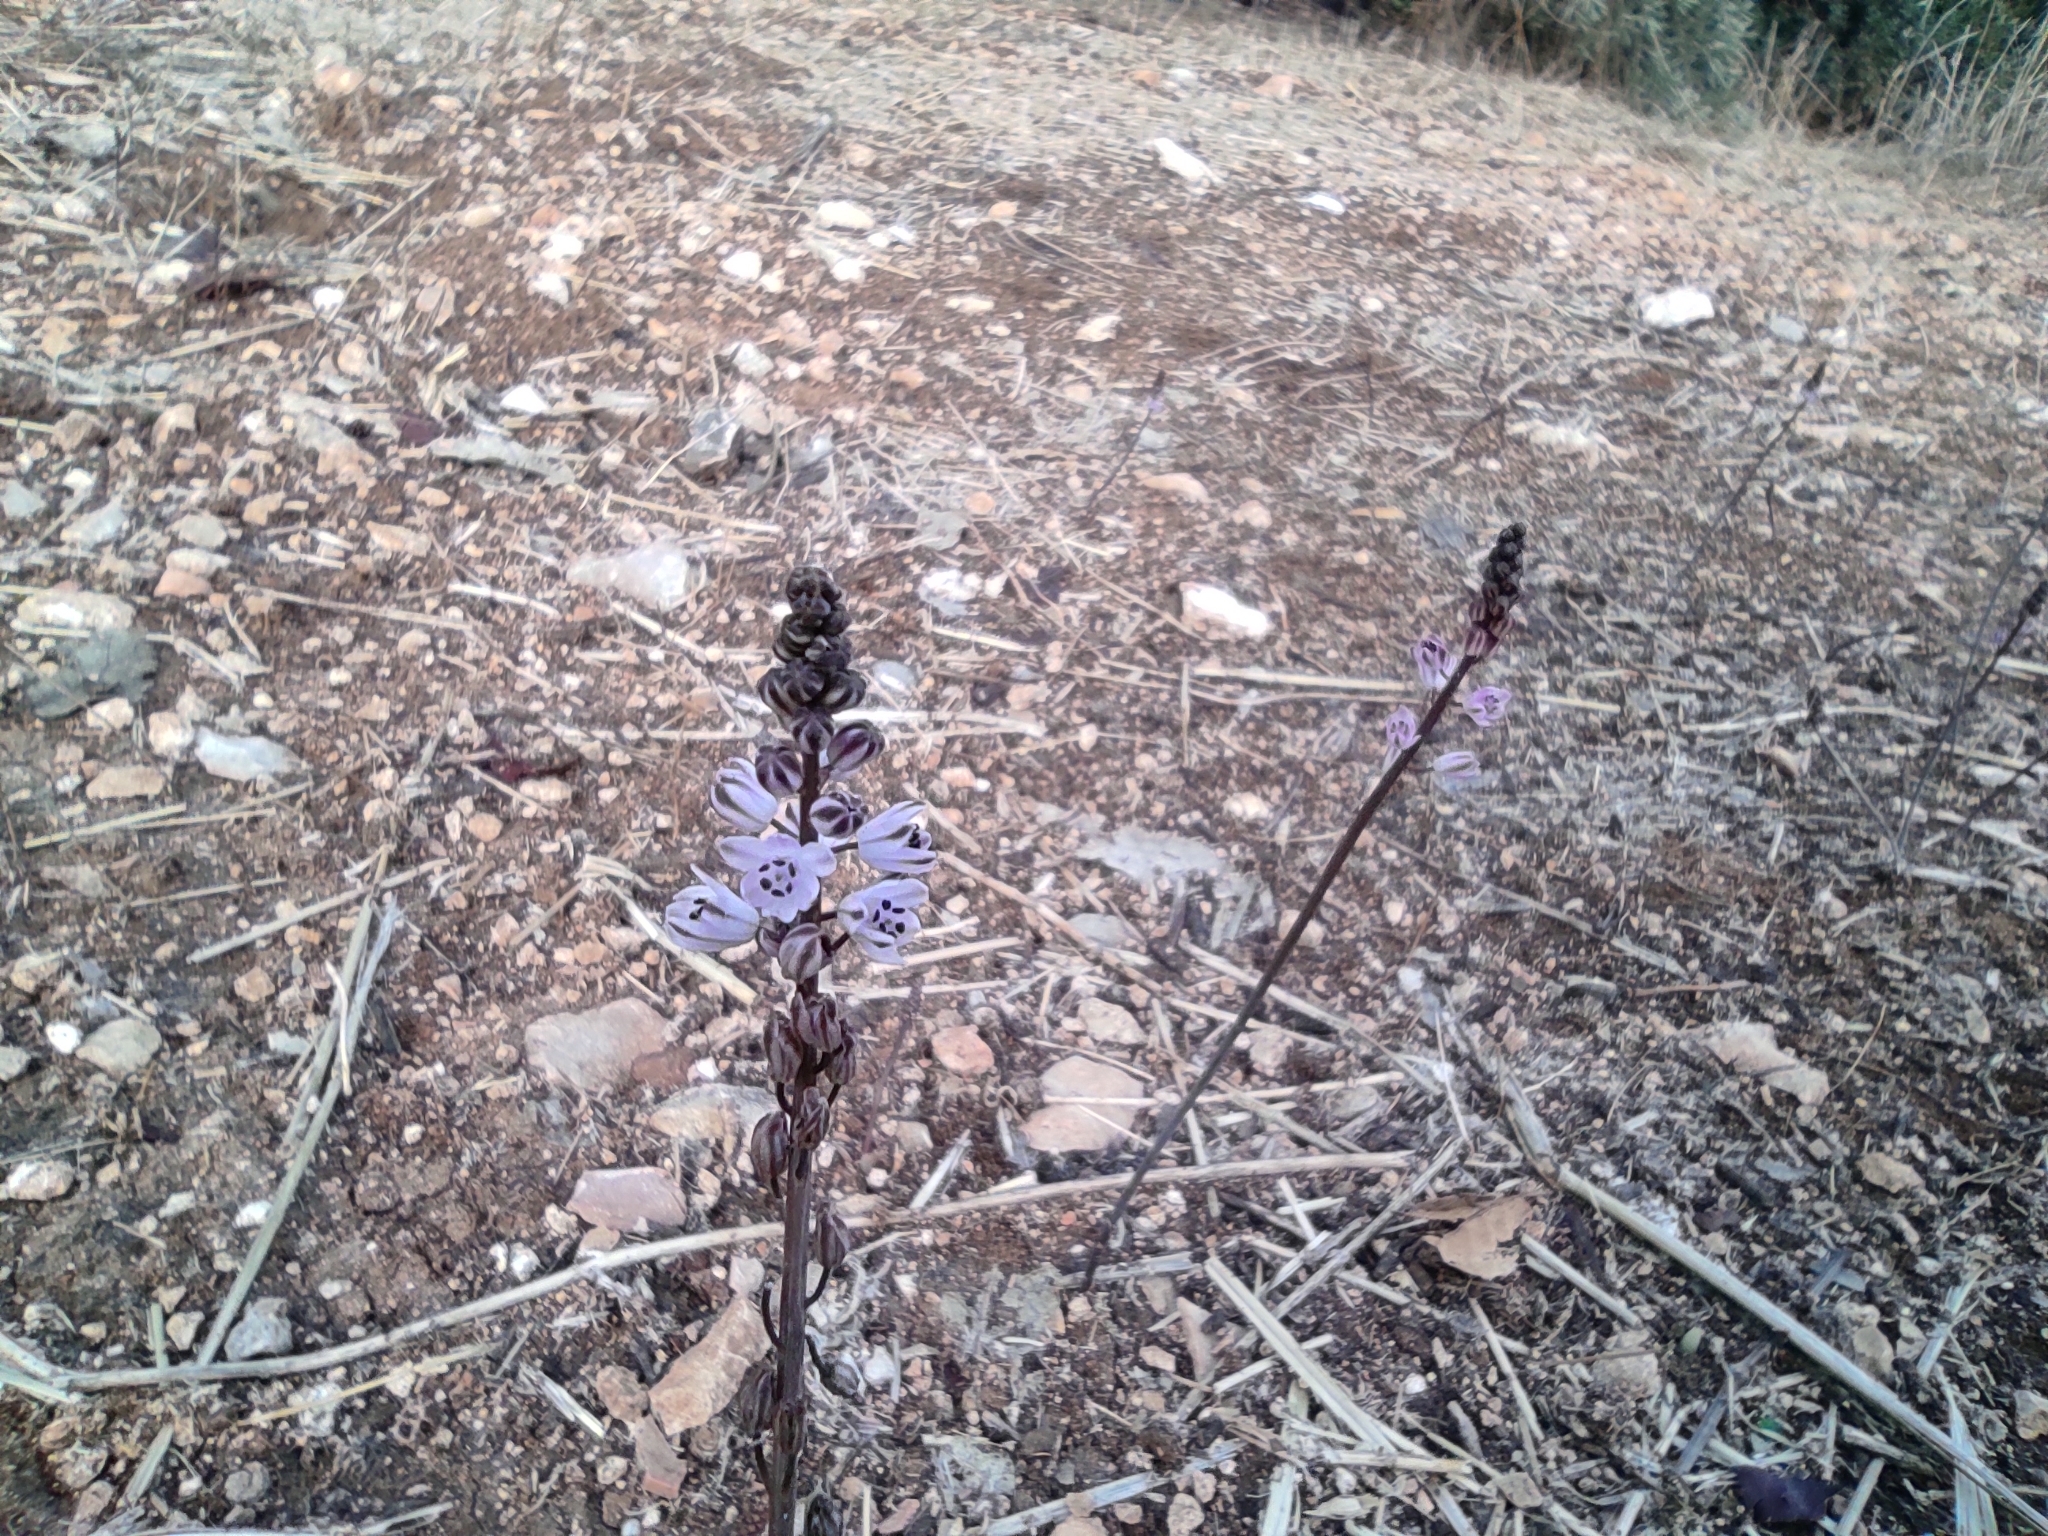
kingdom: Plantae
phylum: Tracheophyta
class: Liliopsida
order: Asparagales
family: Asparagaceae
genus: Prospero
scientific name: Prospero autumnale
